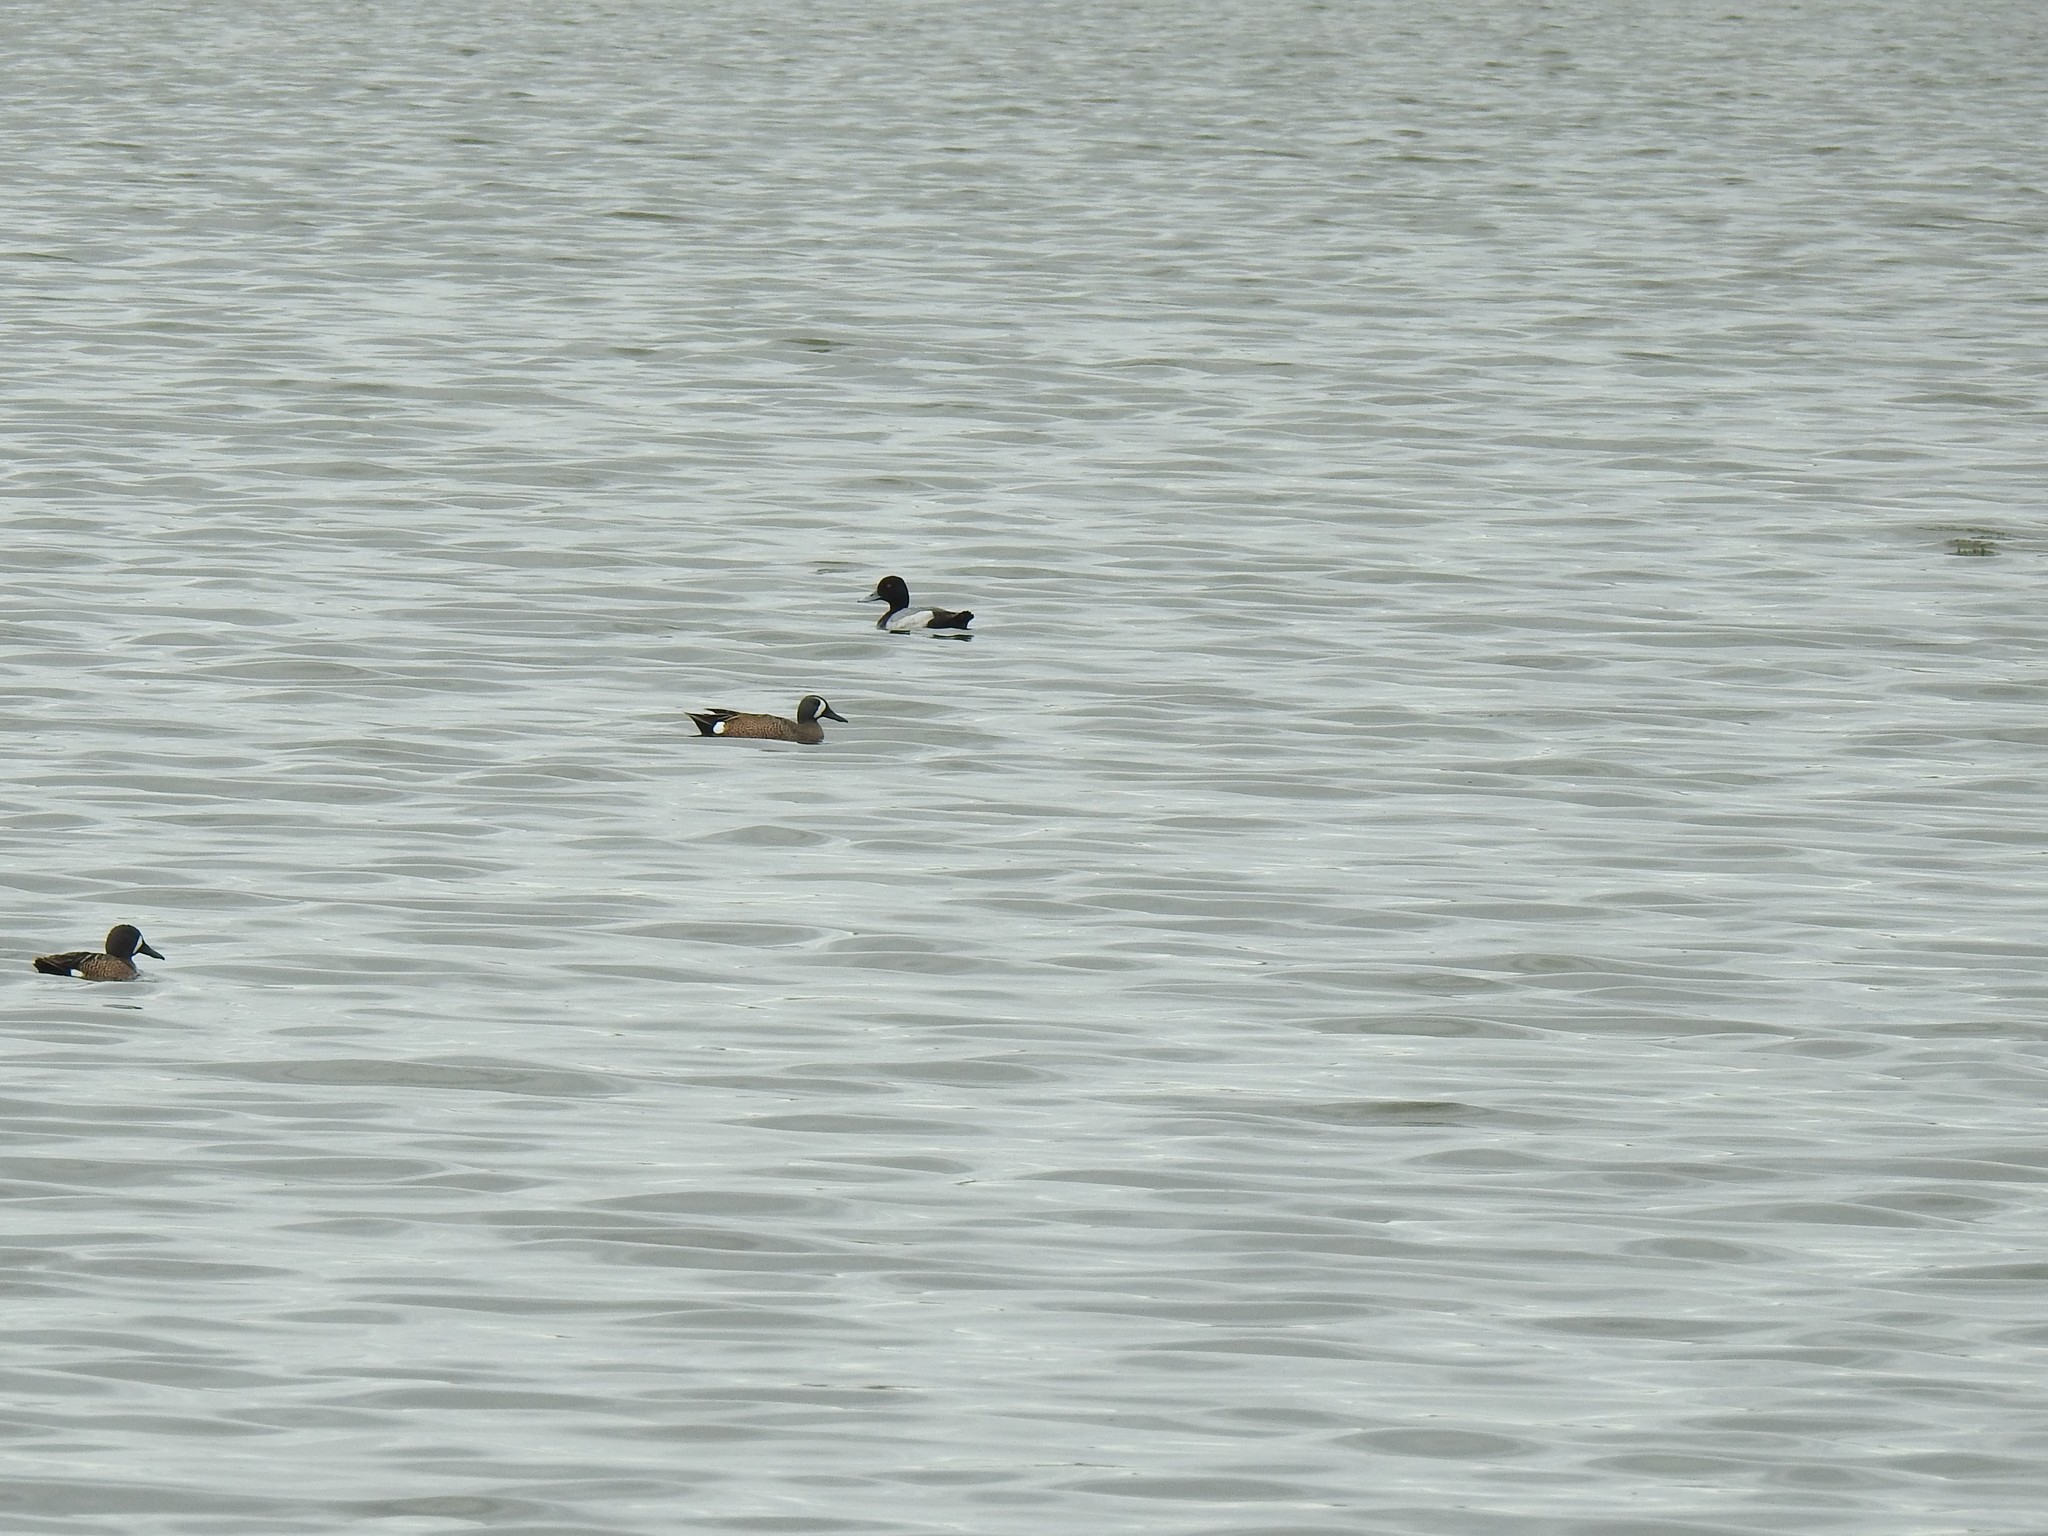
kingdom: Animalia
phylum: Chordata
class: Aves
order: Anseriformes
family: Anatidae
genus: Aythya
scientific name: Aythya affinis
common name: Lesser scaup
